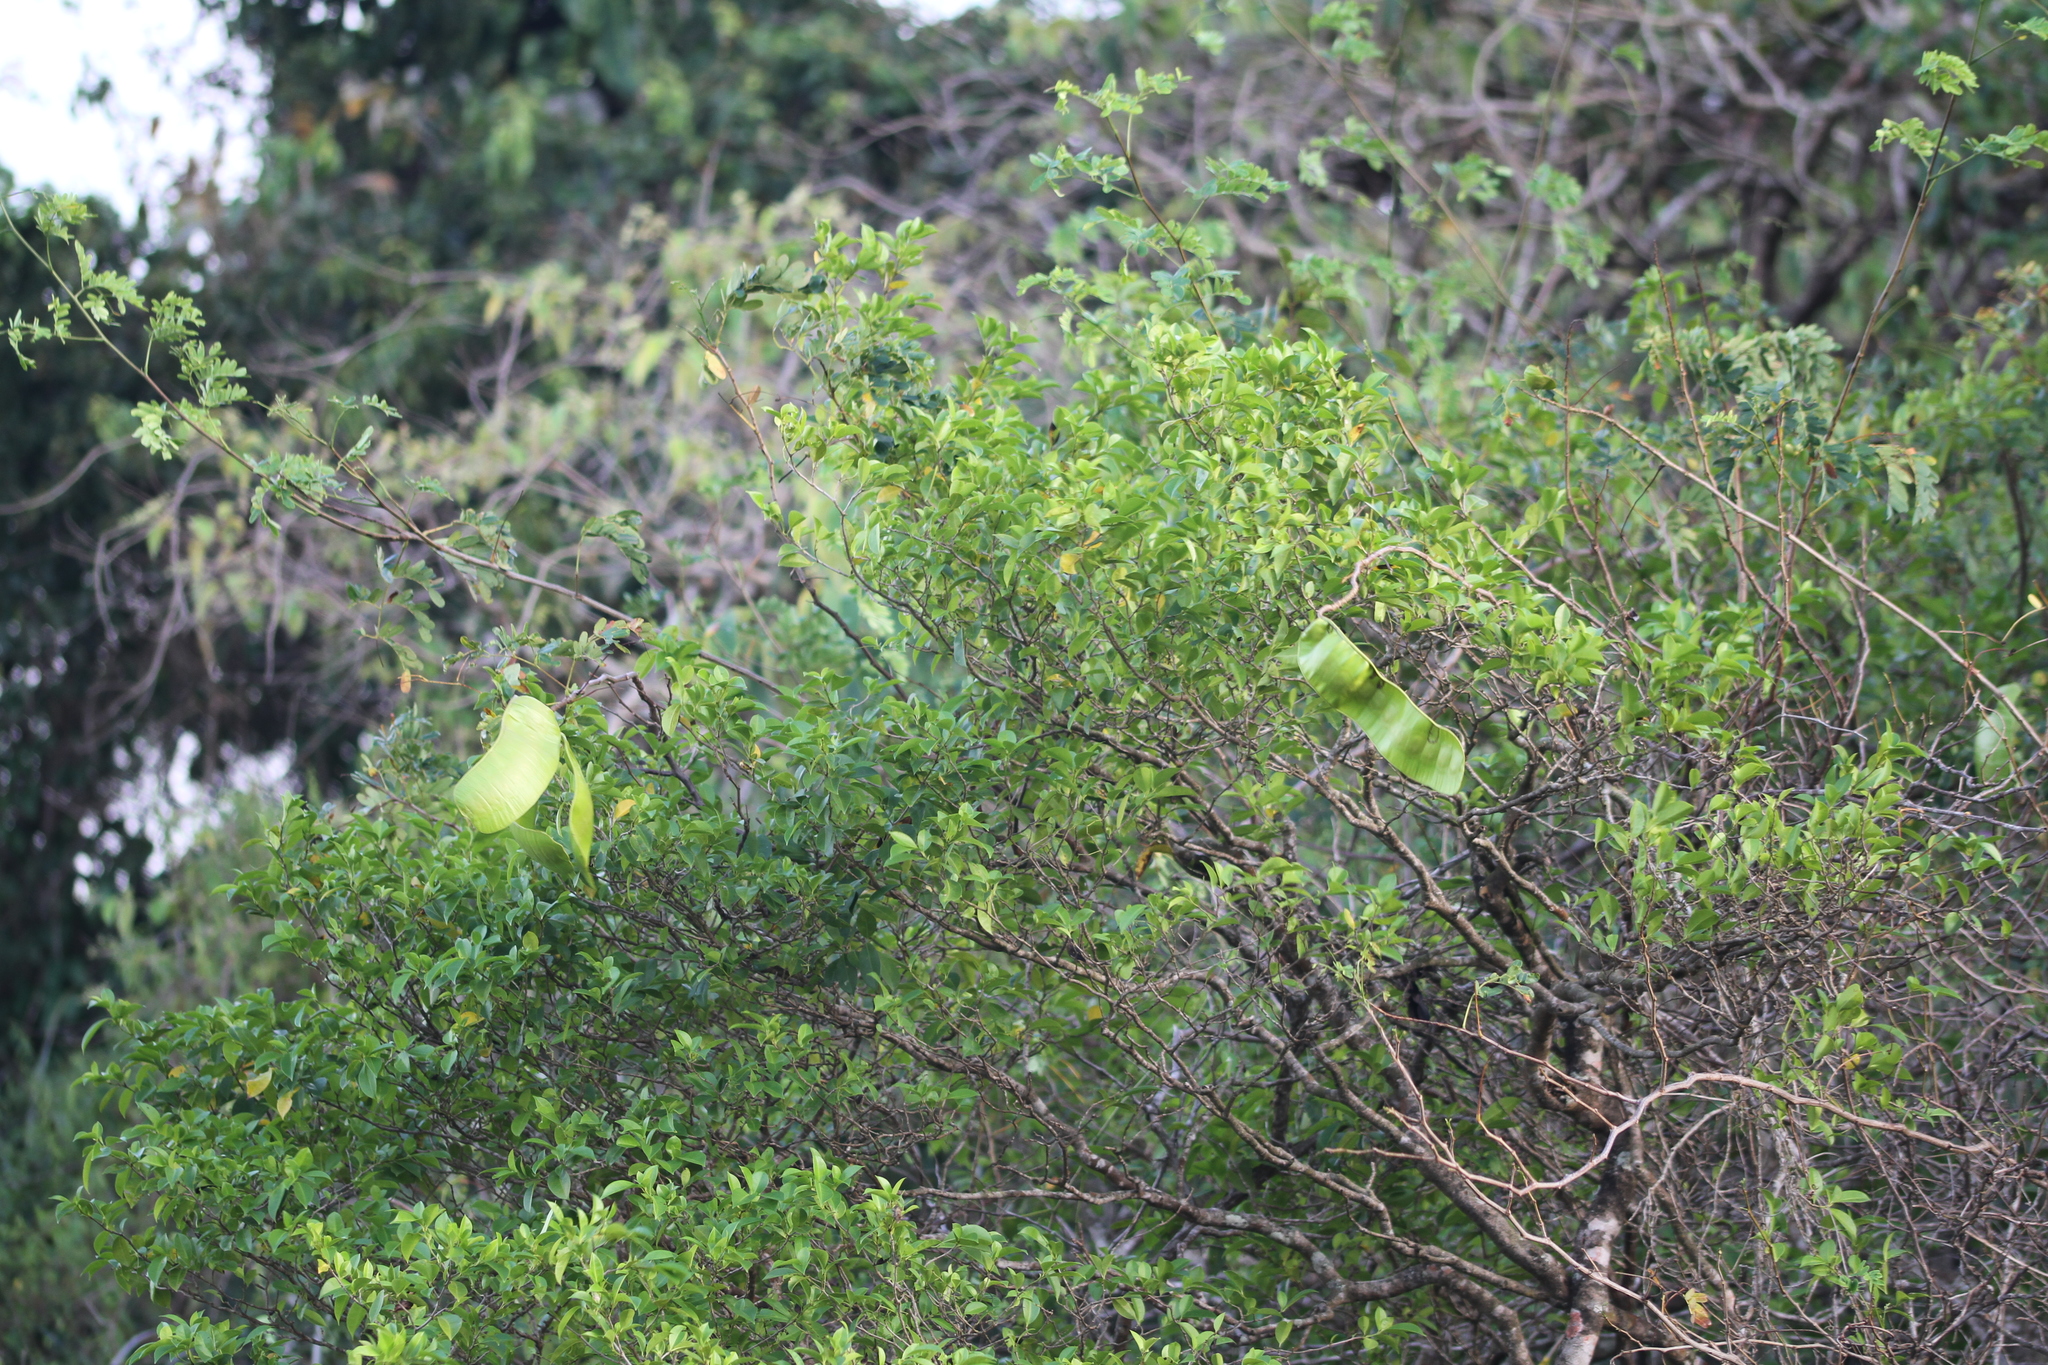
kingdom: Plantae
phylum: Tracheophyta
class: Magnoliopsida
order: Fabales
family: Fabaceae
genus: Entada
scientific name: Entada polystachya
